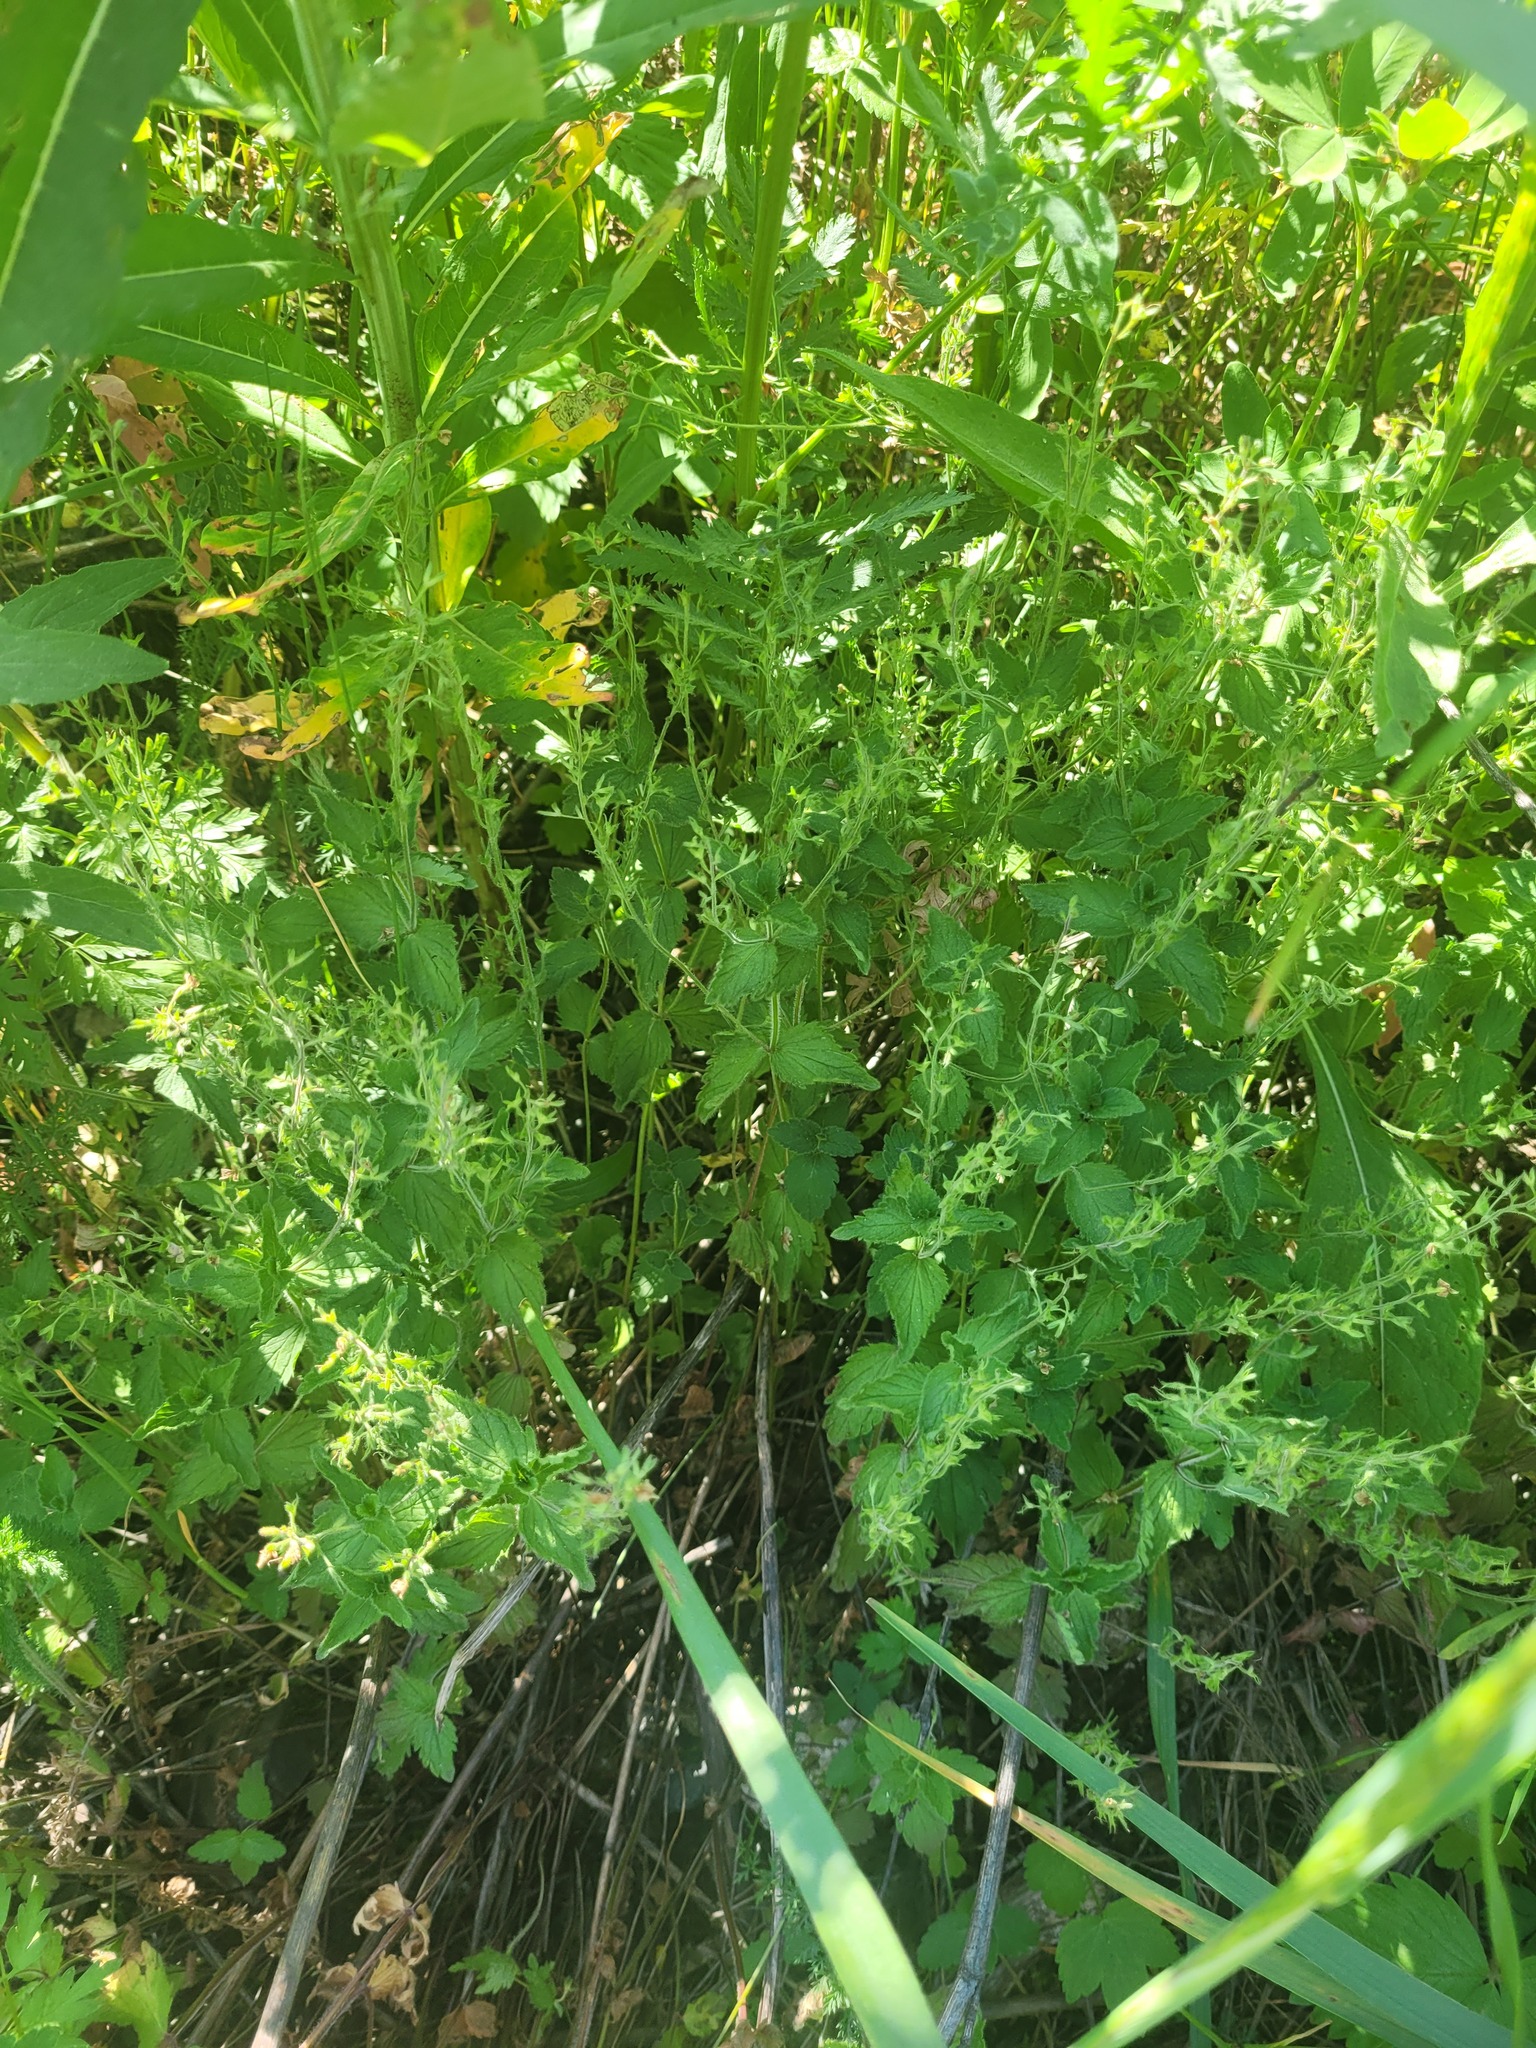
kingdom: Plantae
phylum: Tracheophyta
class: Magnoliopsida
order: Lamiales
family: Plantaginaceae
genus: Veronica
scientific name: Veronica chamaedrys
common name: Germander speedwell
